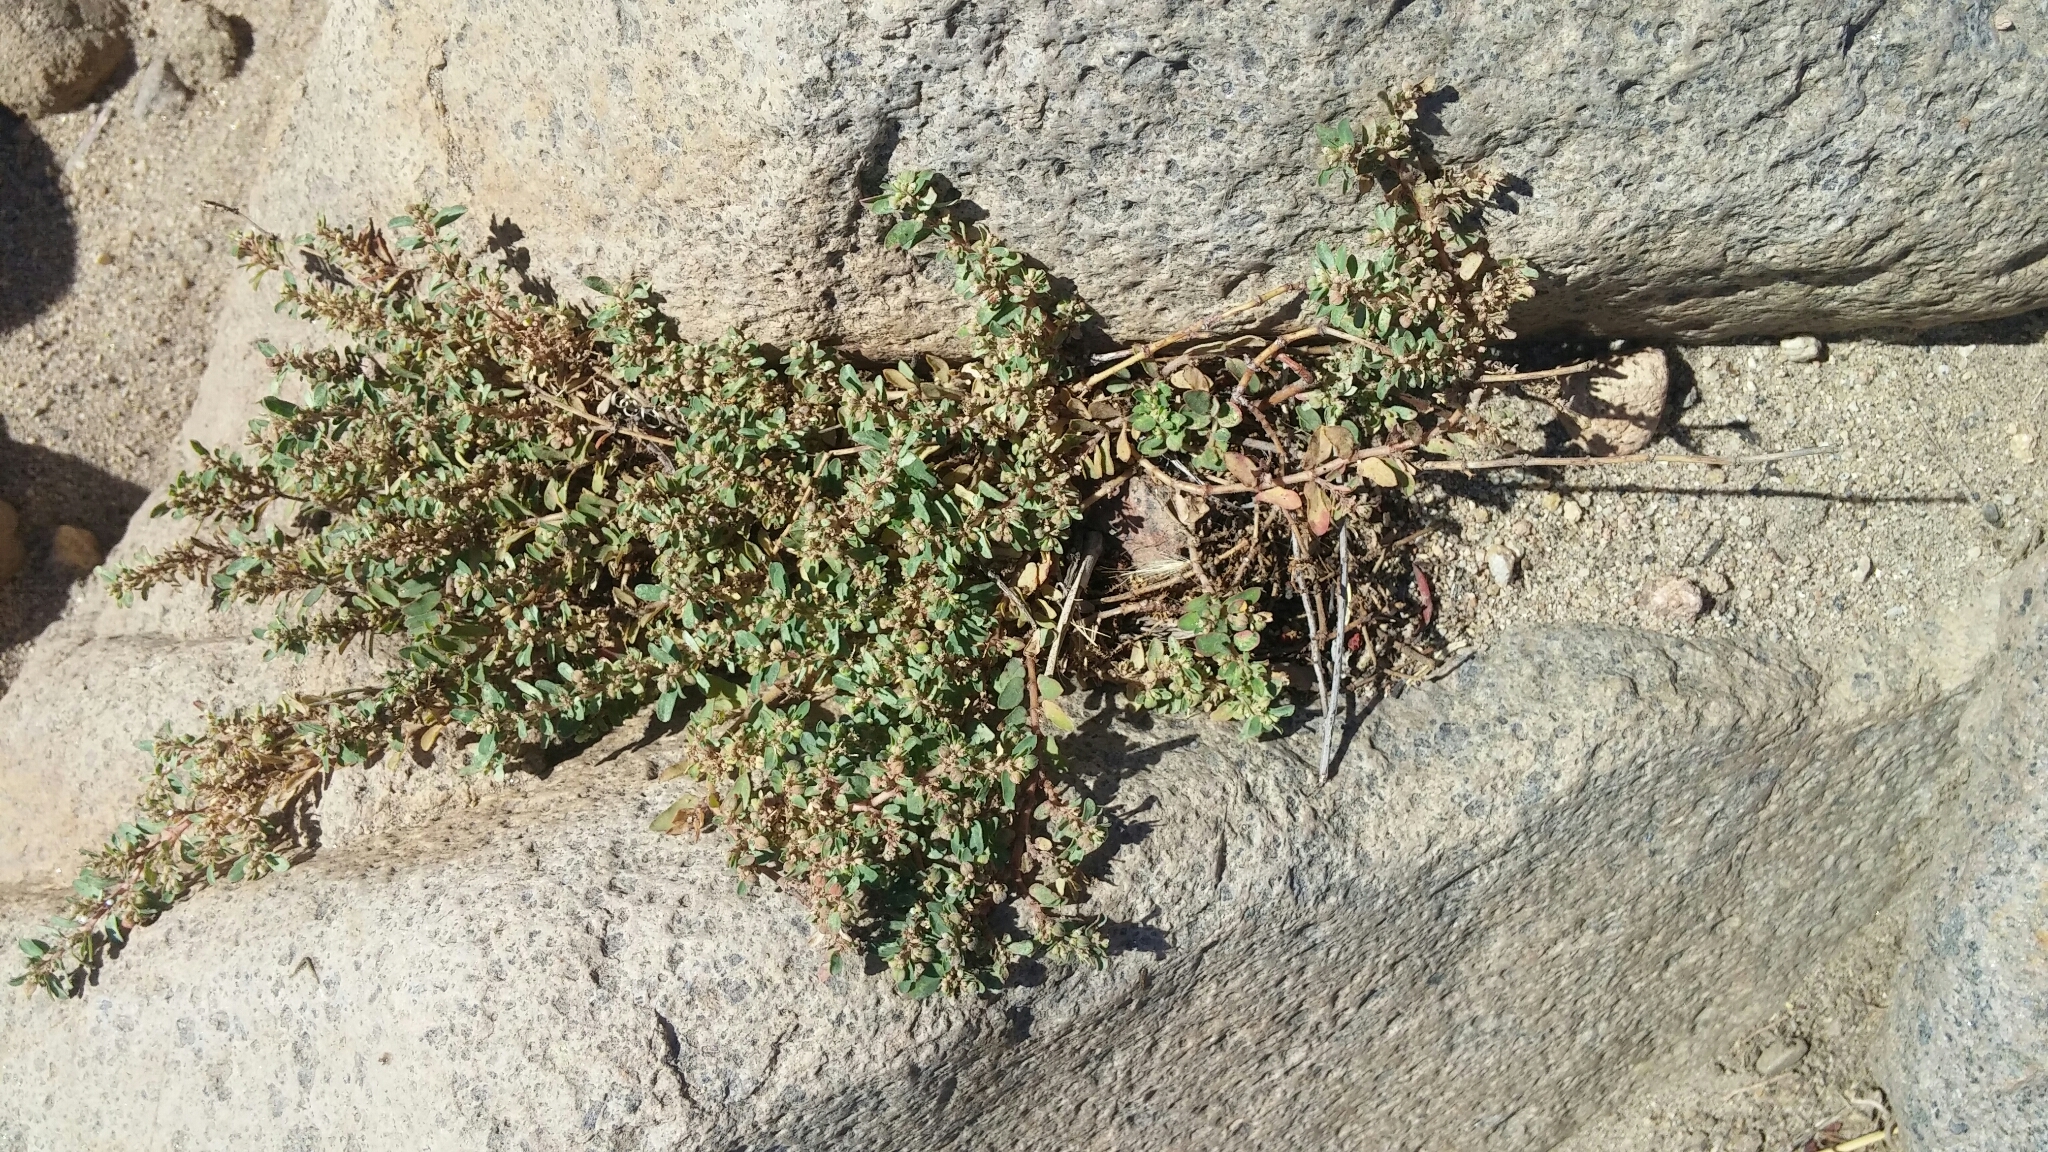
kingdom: Plantae
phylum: Tracheophyta
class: Magnoliopsida
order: Malpighiales
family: Euphorbiaceae
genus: Euphorbia
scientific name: Euphorbia maculata
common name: Spotted spurge
